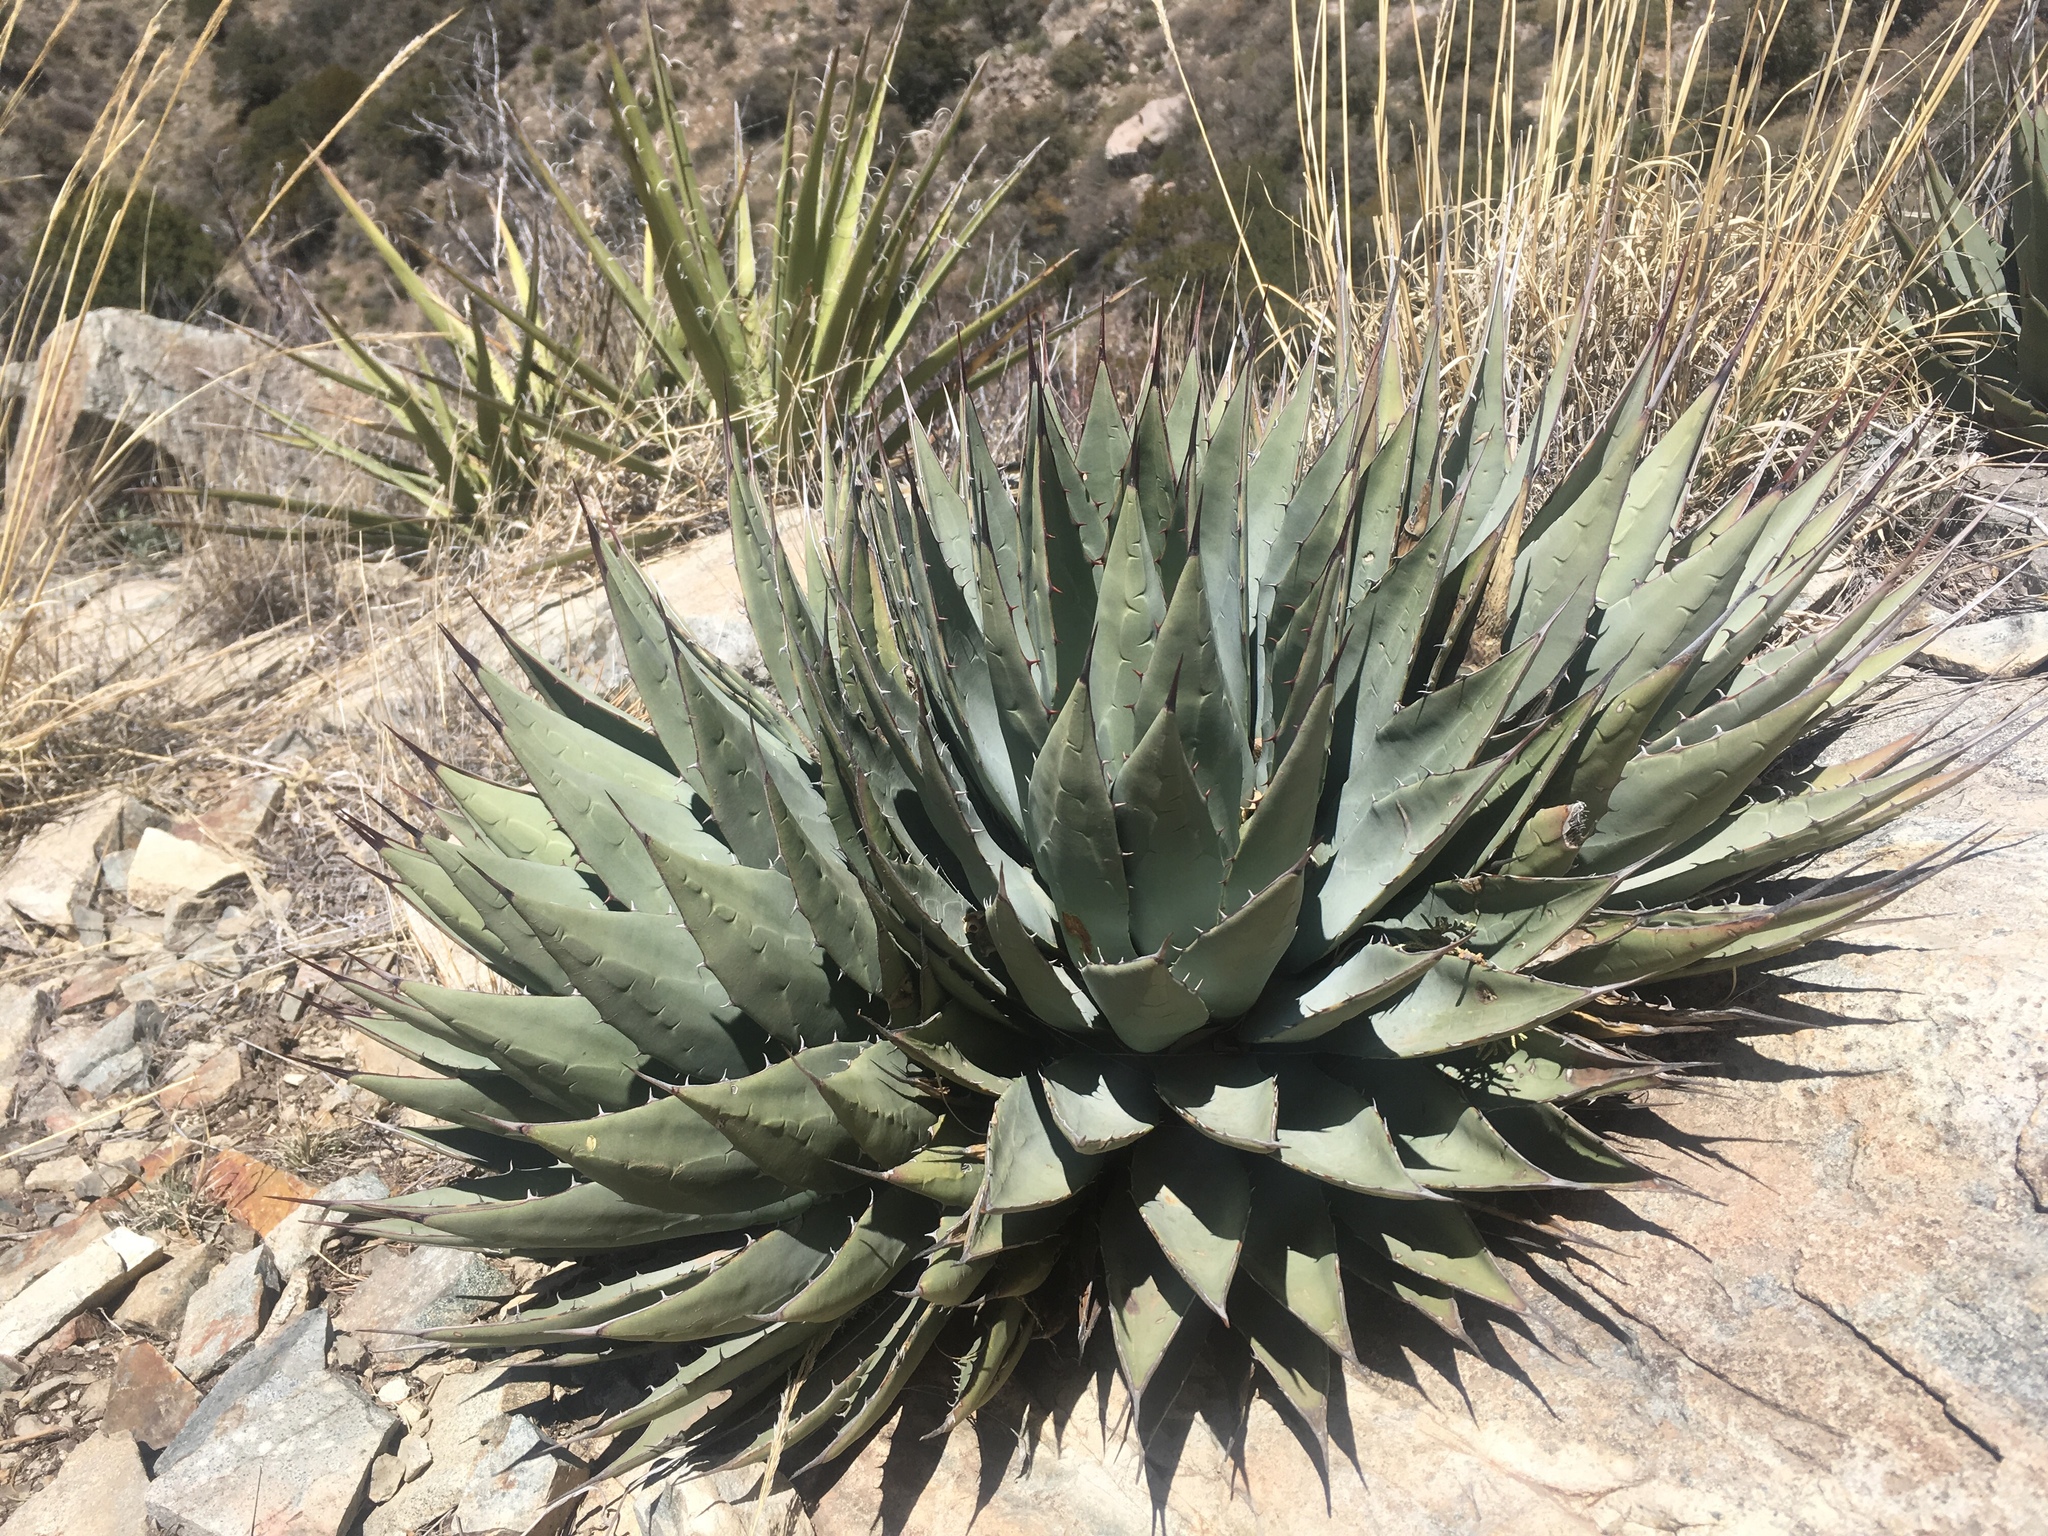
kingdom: Plantae
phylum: Tracheophyta
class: Liliopsida
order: Asparagales
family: Asparagaceae
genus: Agave
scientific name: Agave parryi
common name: Parry's agave
